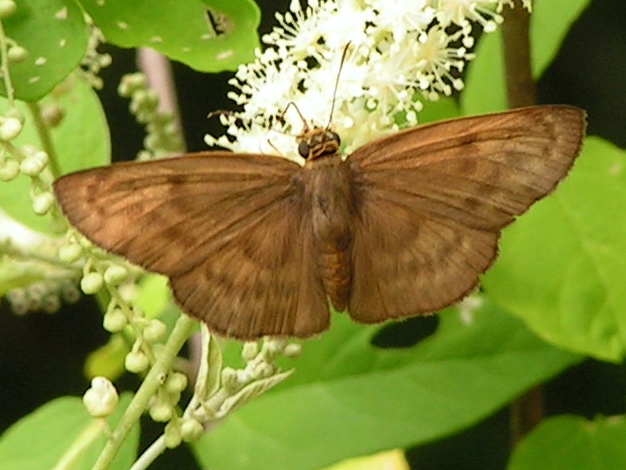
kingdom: Animalia
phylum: Arthropoda
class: Insecta
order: Lepidoptera
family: Hesperiidae
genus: Grais
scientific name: Grais stigmaticus
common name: Hermit skipper
